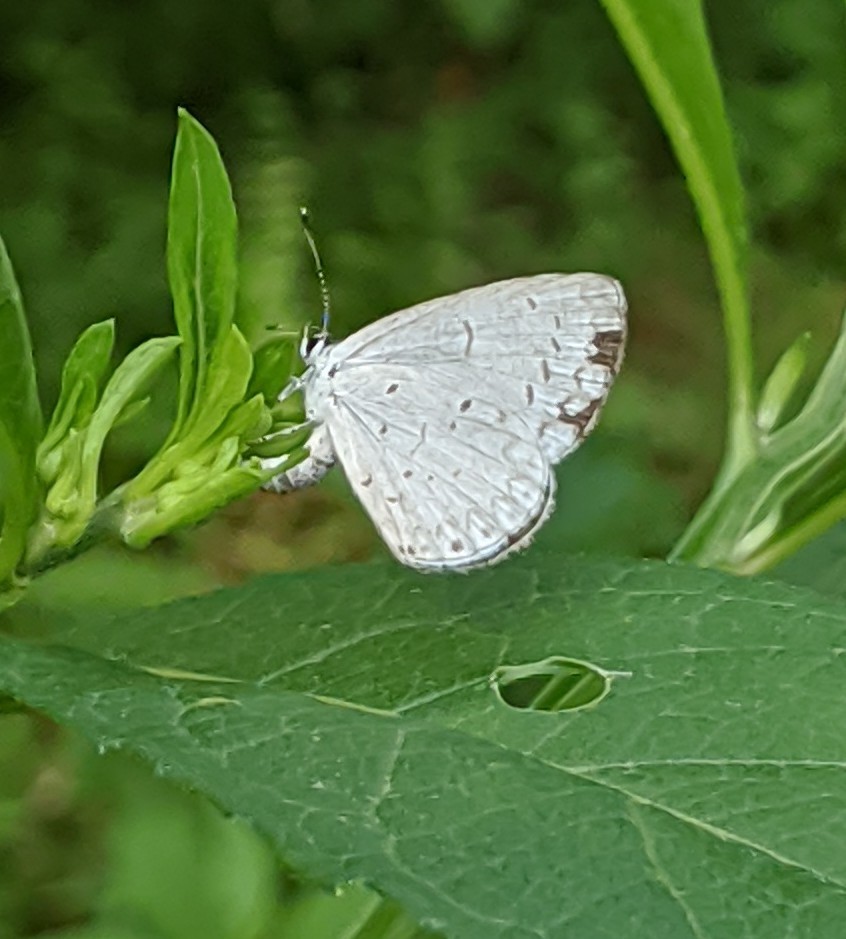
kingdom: Animalia
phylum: Arthropoda
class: Insecta
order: Lepidoptera
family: Lycaenidae
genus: Cyaniris
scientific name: Cyaniris neglecta
